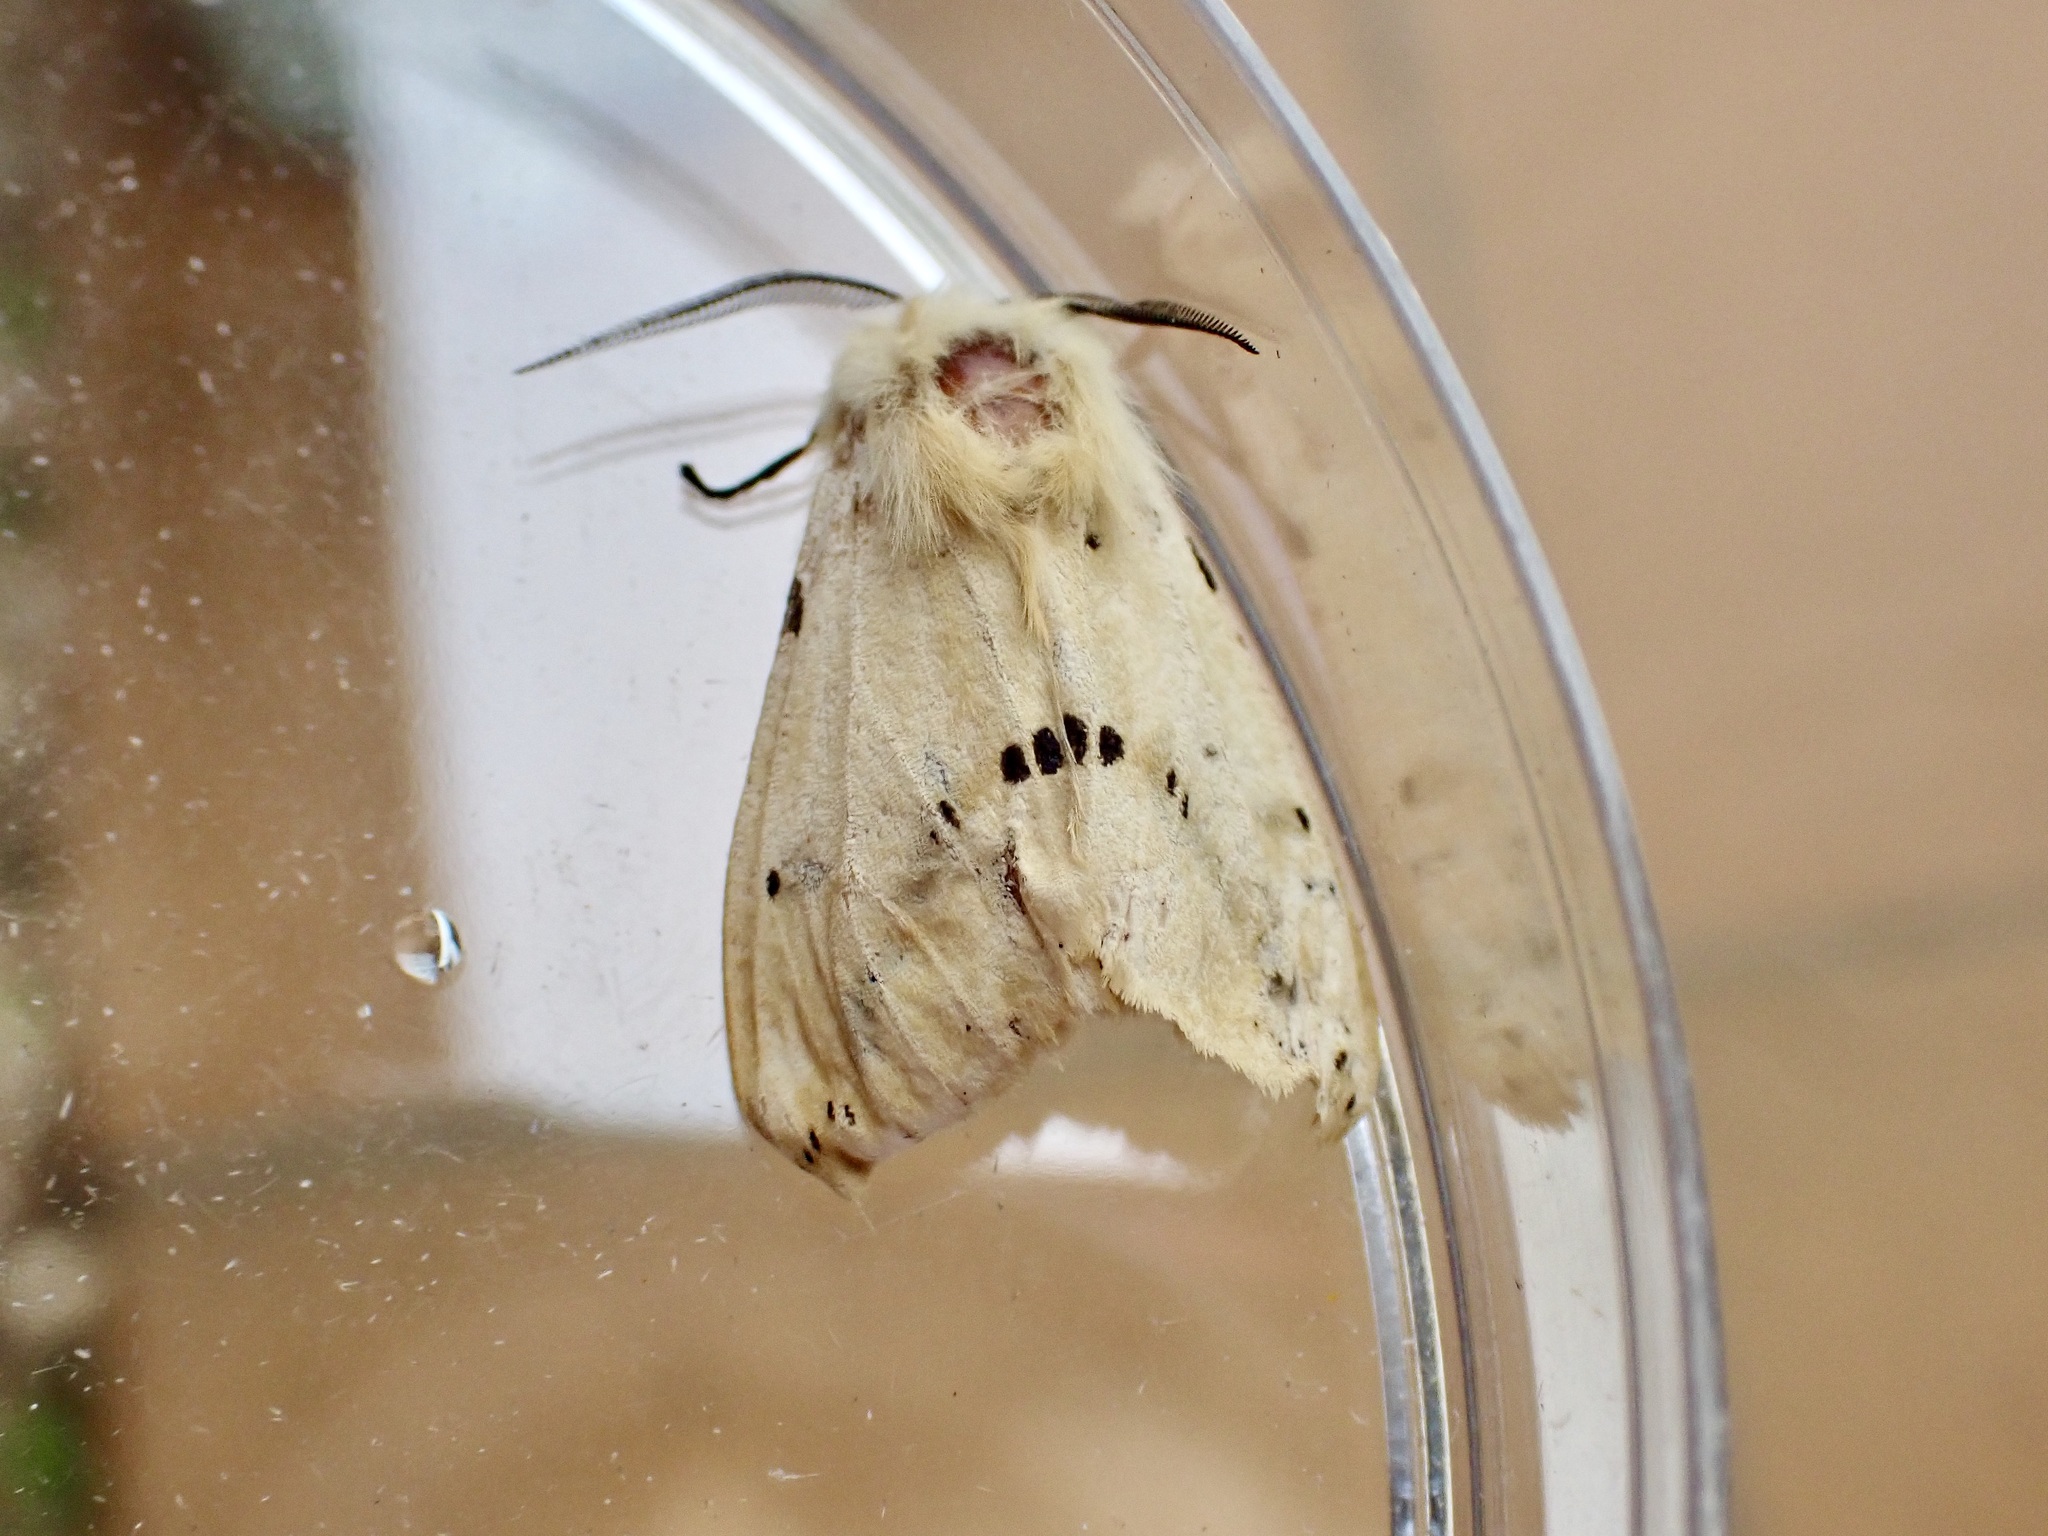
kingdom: Animalia
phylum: Arthropoda
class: Insecta
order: Lepidoptera
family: Erebidae
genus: Spilarctia
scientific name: Spilarctia lutea
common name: Buff ermine
